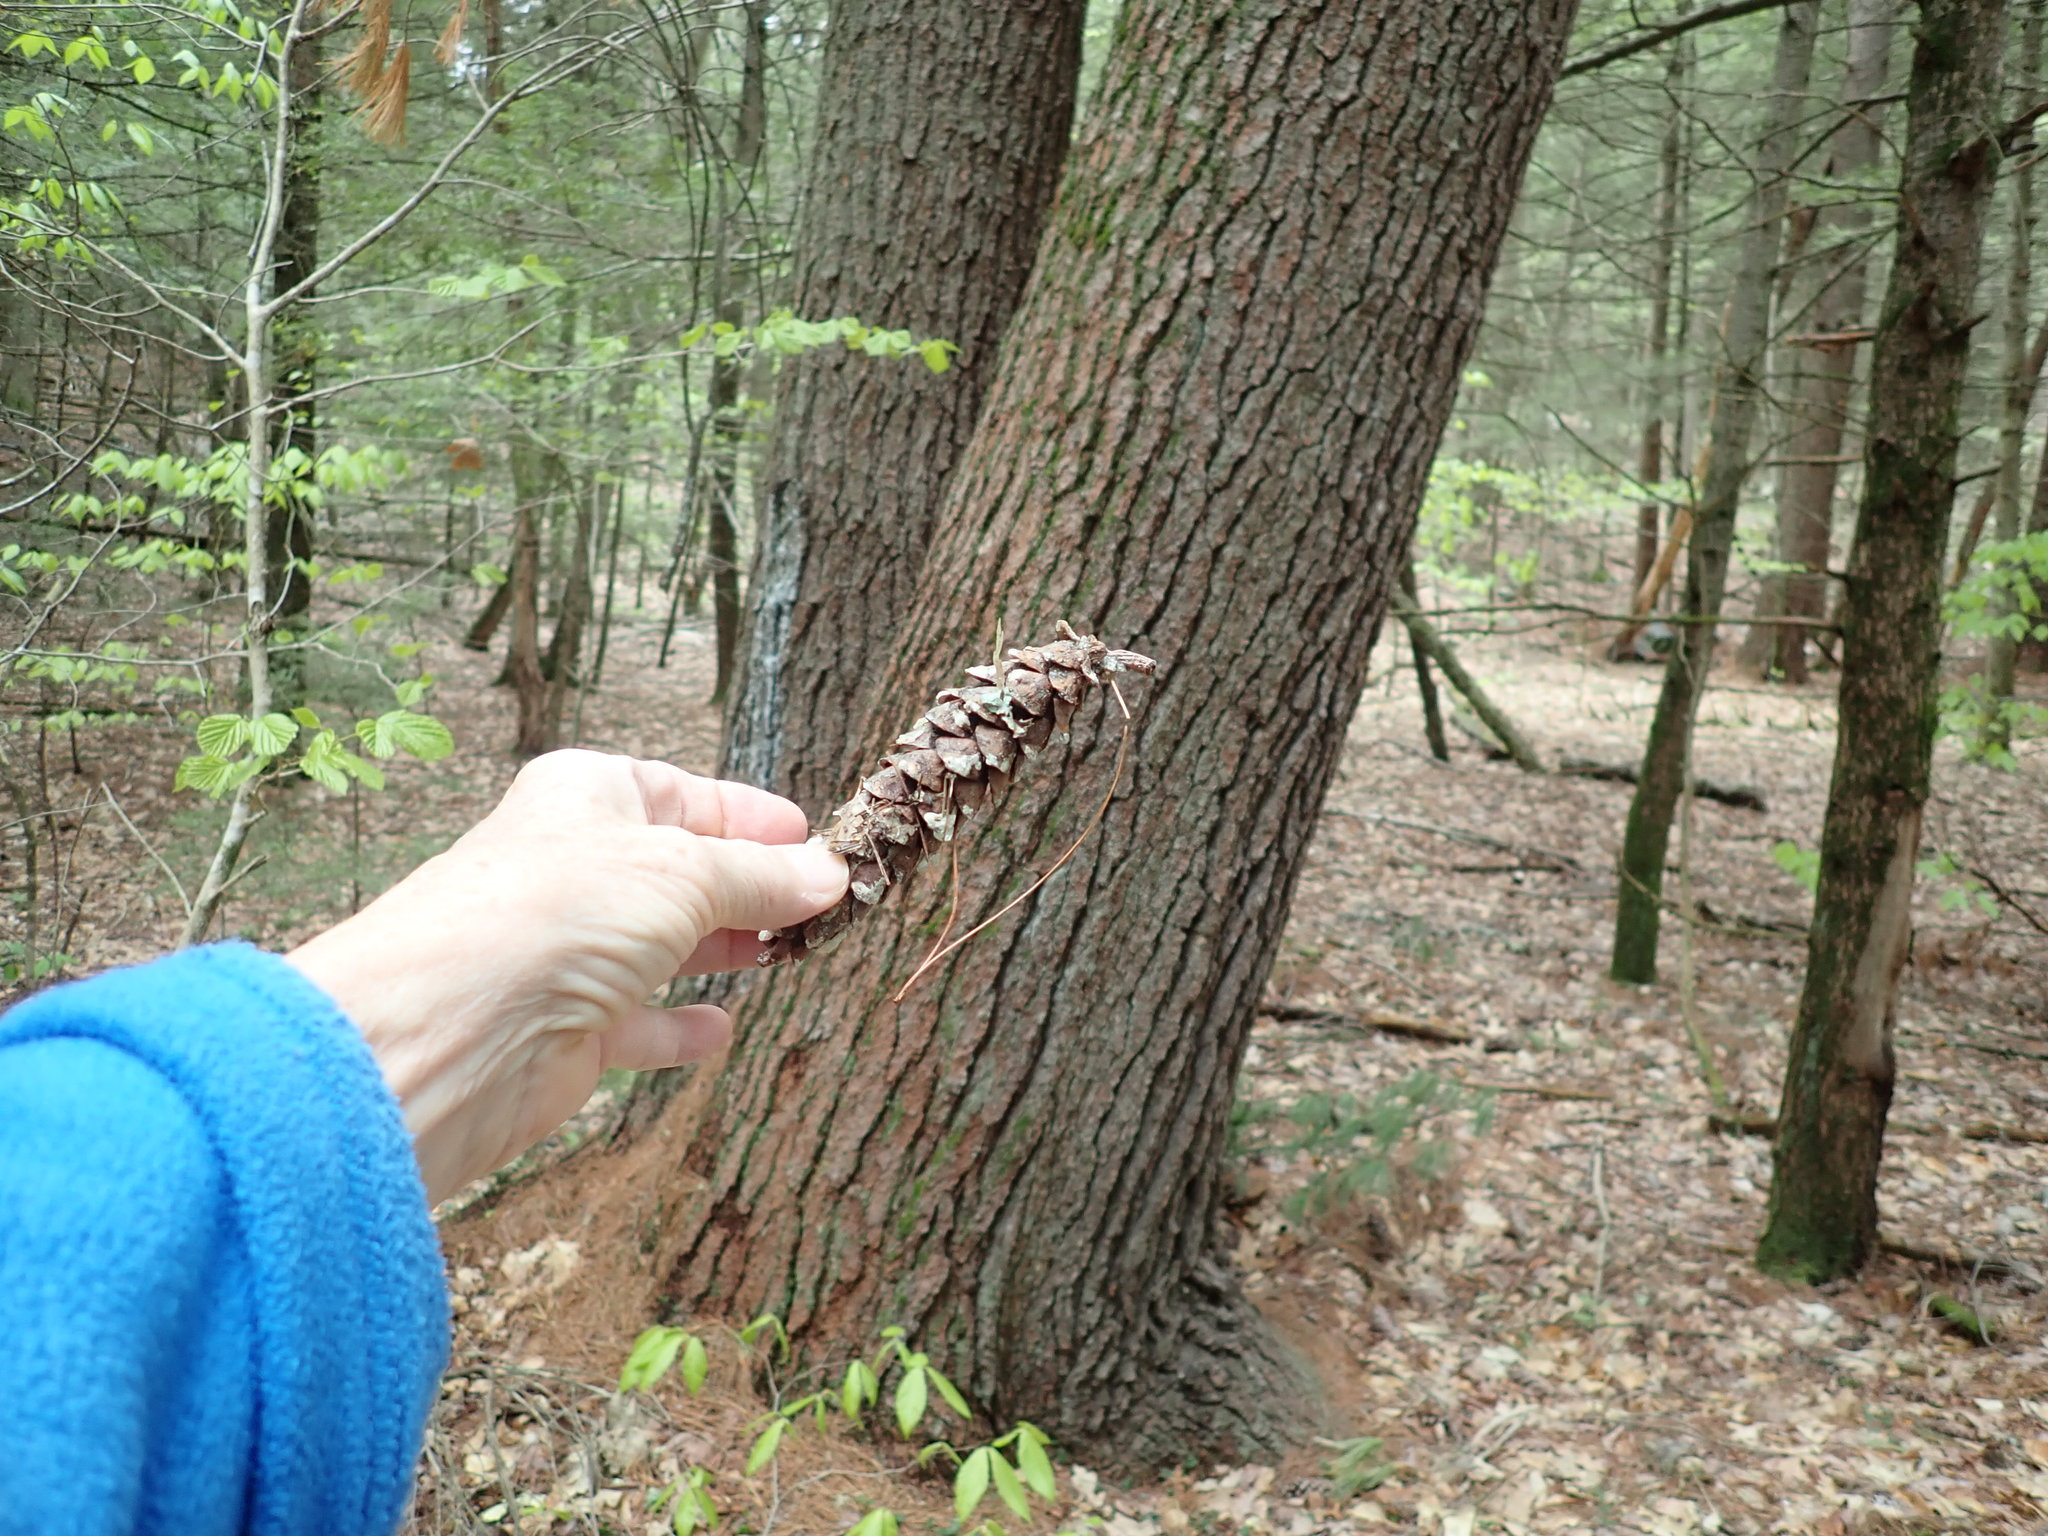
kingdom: Plantae
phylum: Tracheophyta
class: Pinopsida
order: Pinales
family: Pinaceae
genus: Pinus
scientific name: Pinus strobus
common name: Weymouth pine
